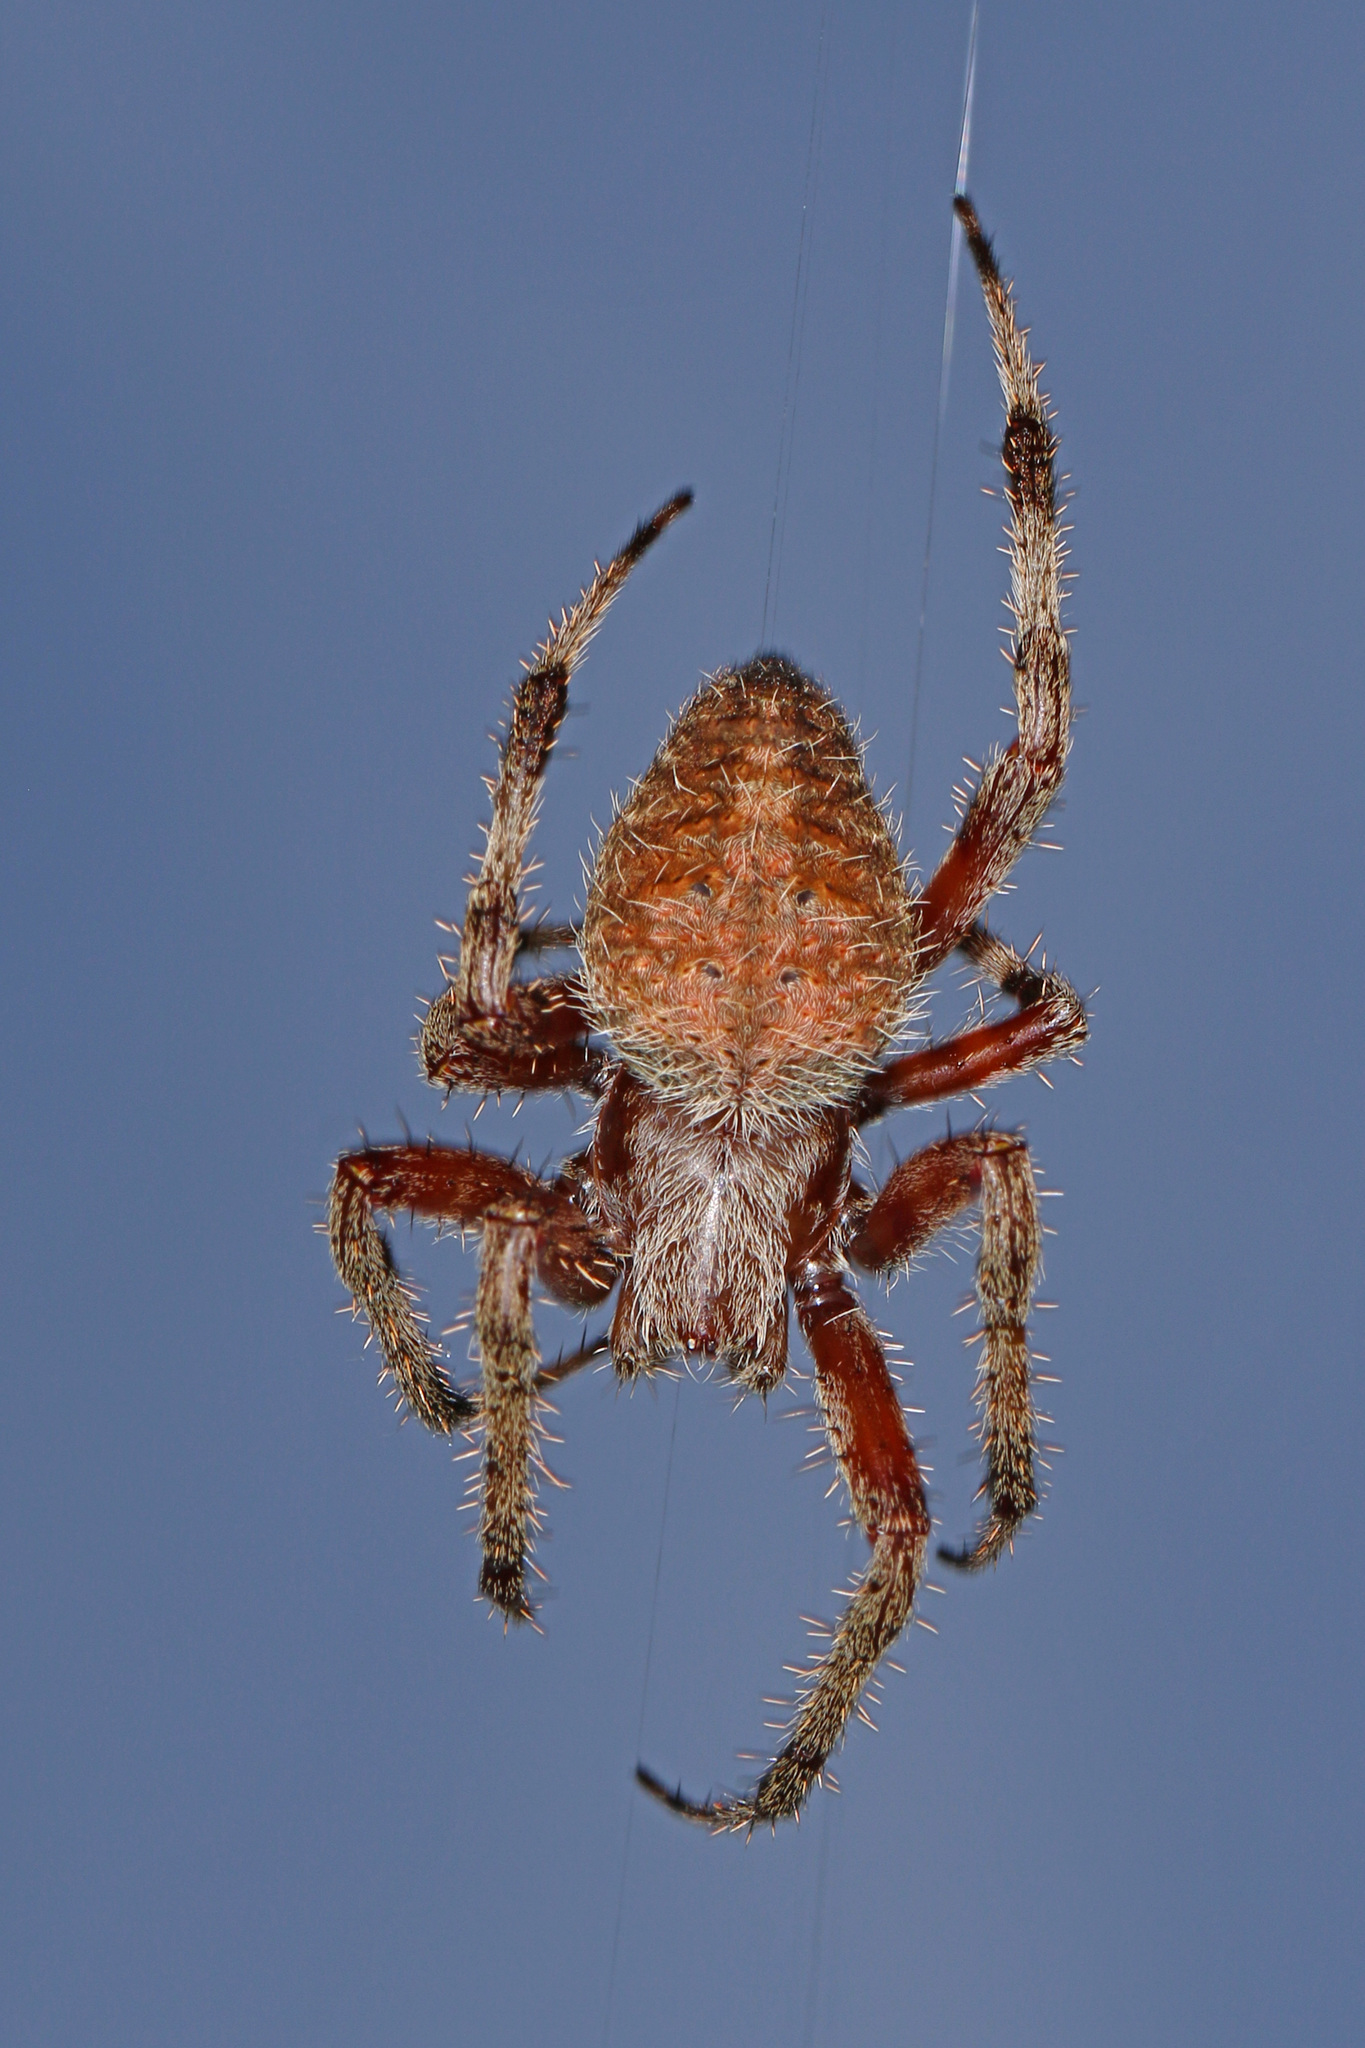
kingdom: Animalia
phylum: Arthropoda
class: Arachnida
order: Araneae
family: Araneidae
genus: Neoscona
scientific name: Neoscona crucifera
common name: Spotted orbweaver
